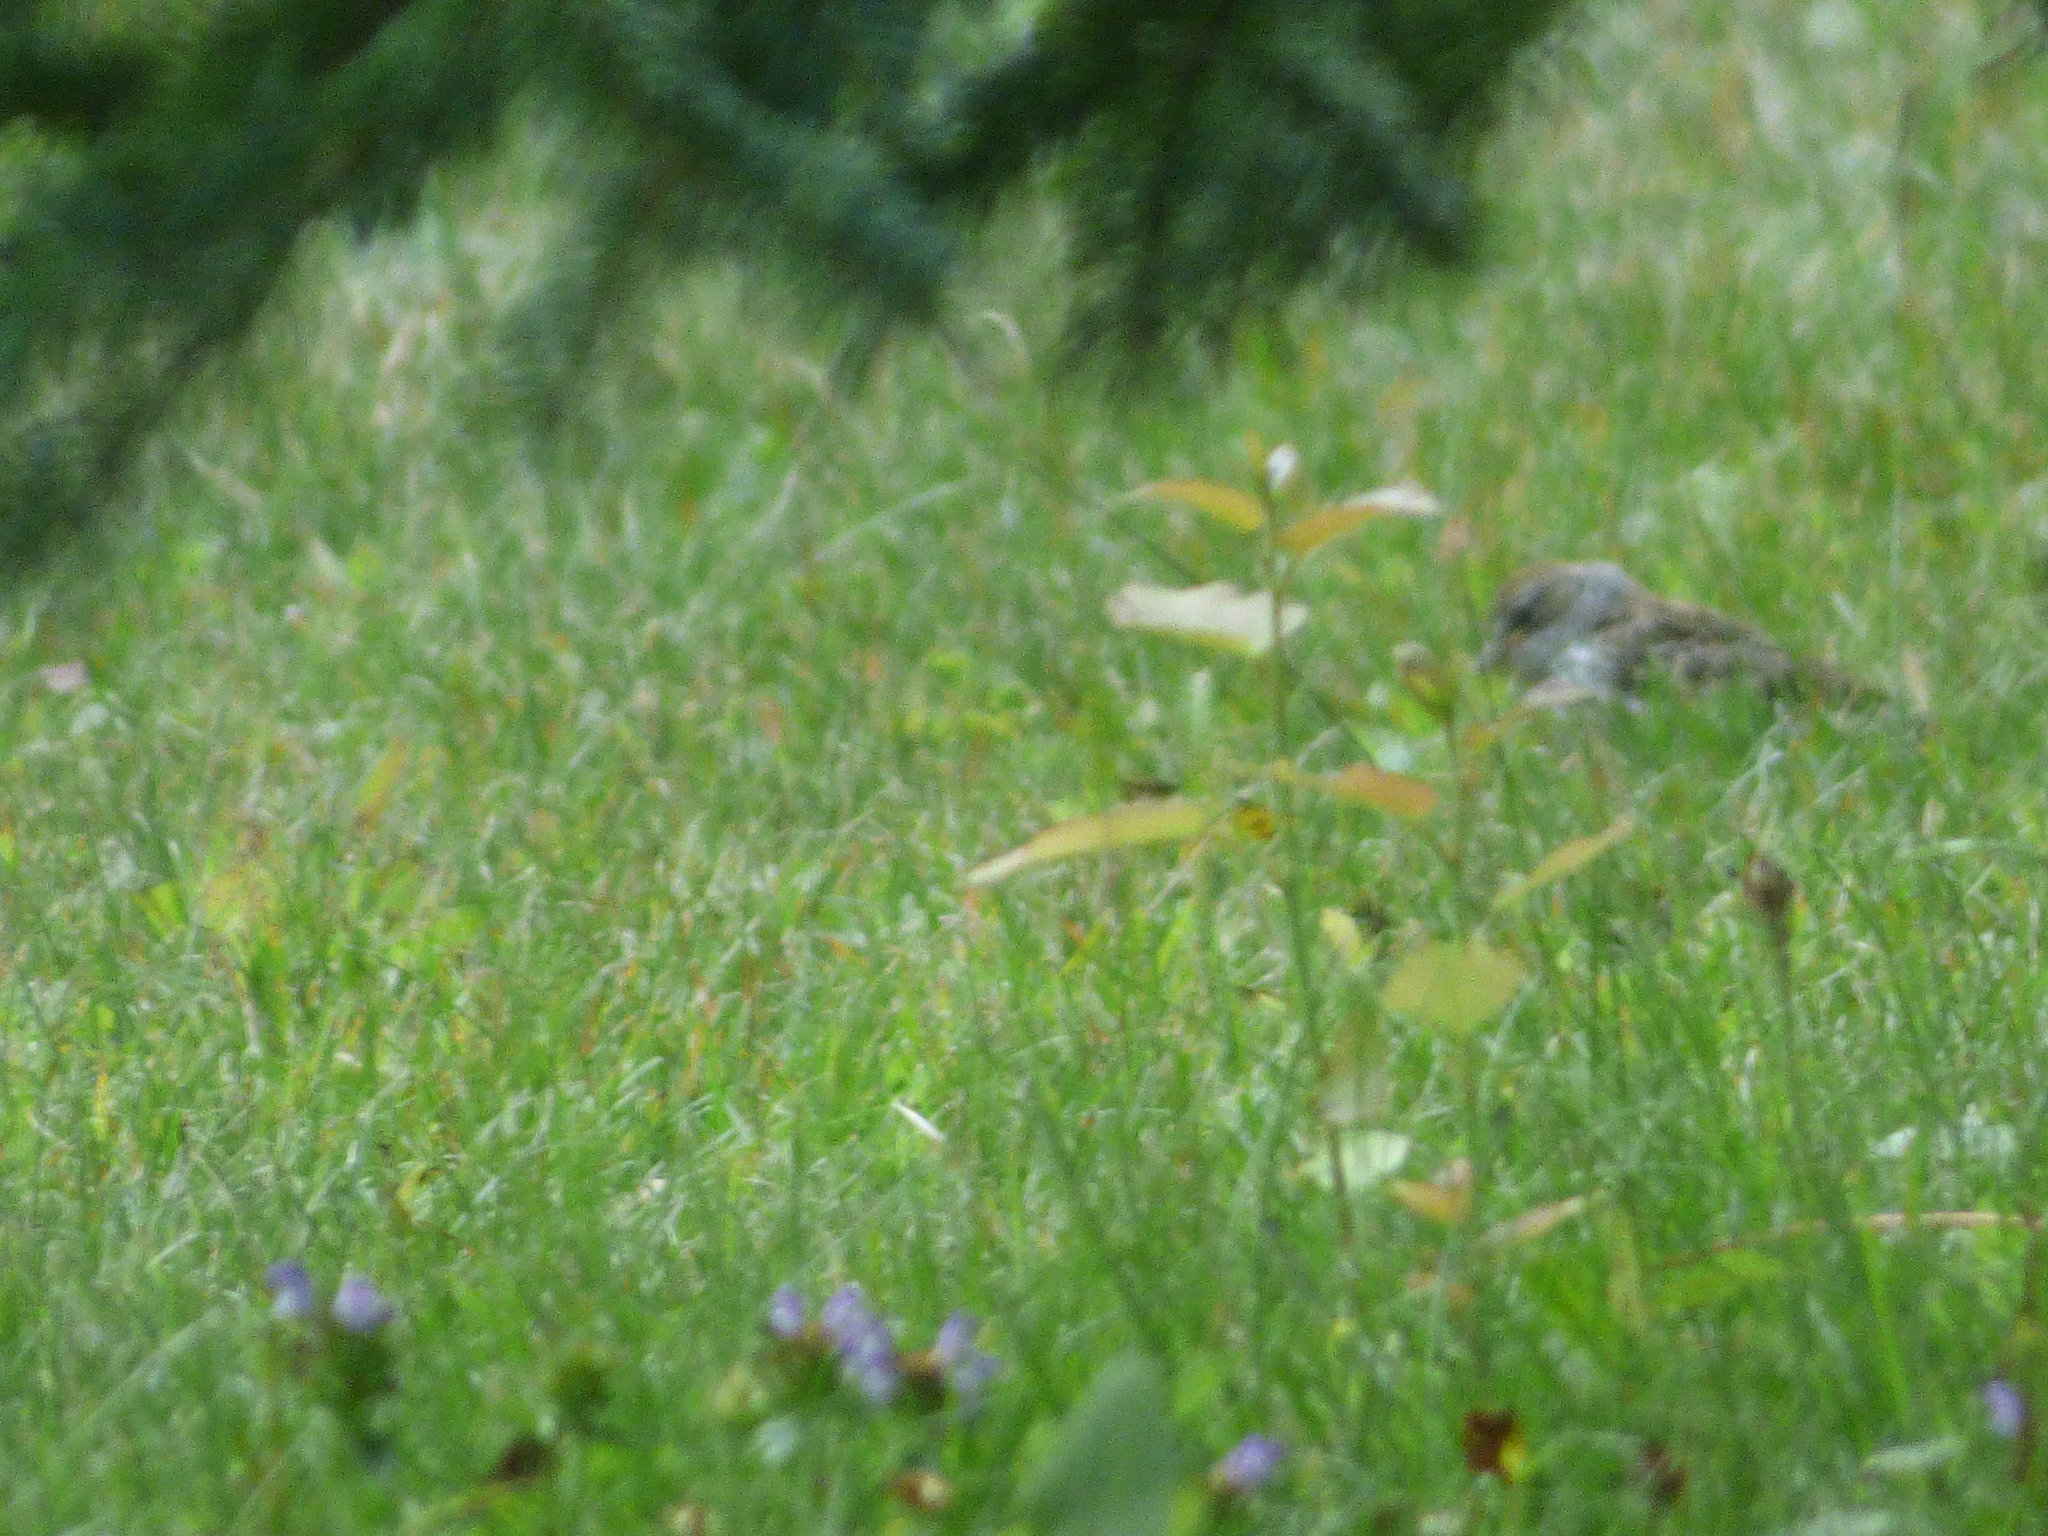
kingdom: Animalia
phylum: Chordata
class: Aves
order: Passeriformes
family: Passerellidae
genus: Spizella
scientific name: Spizella passerina
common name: Chipping sparrow
